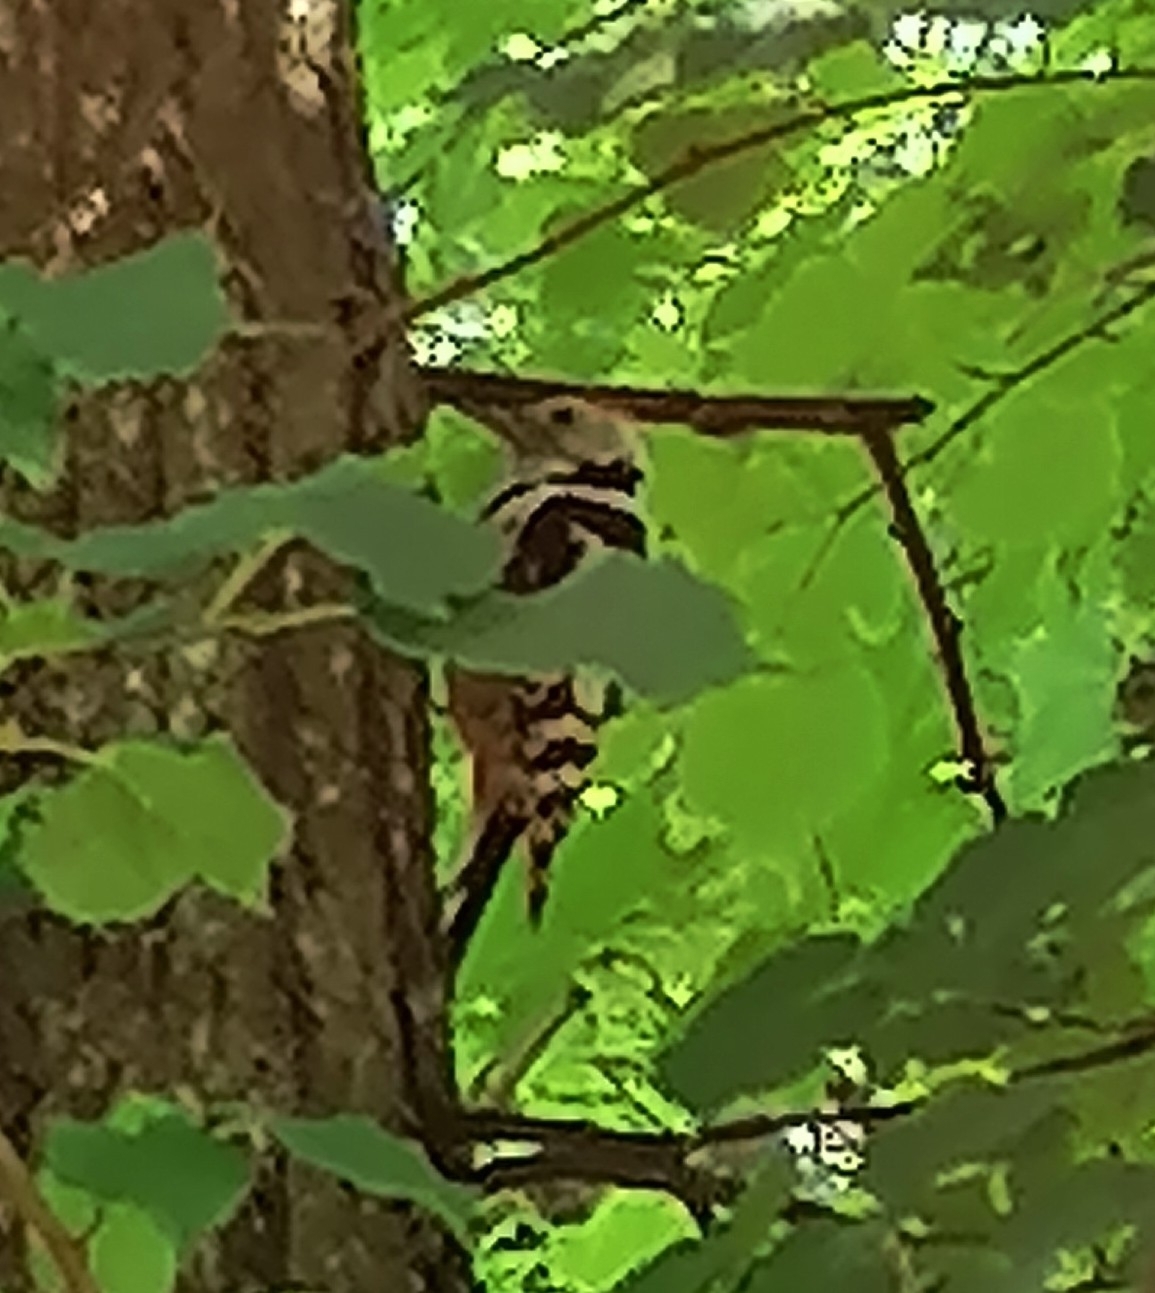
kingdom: Animalia
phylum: Chordata
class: Aves
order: Piciformes
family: Picidae
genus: Dendrocoptes
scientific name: Dendrocoptes medius
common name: Middle spotted woodpecker
